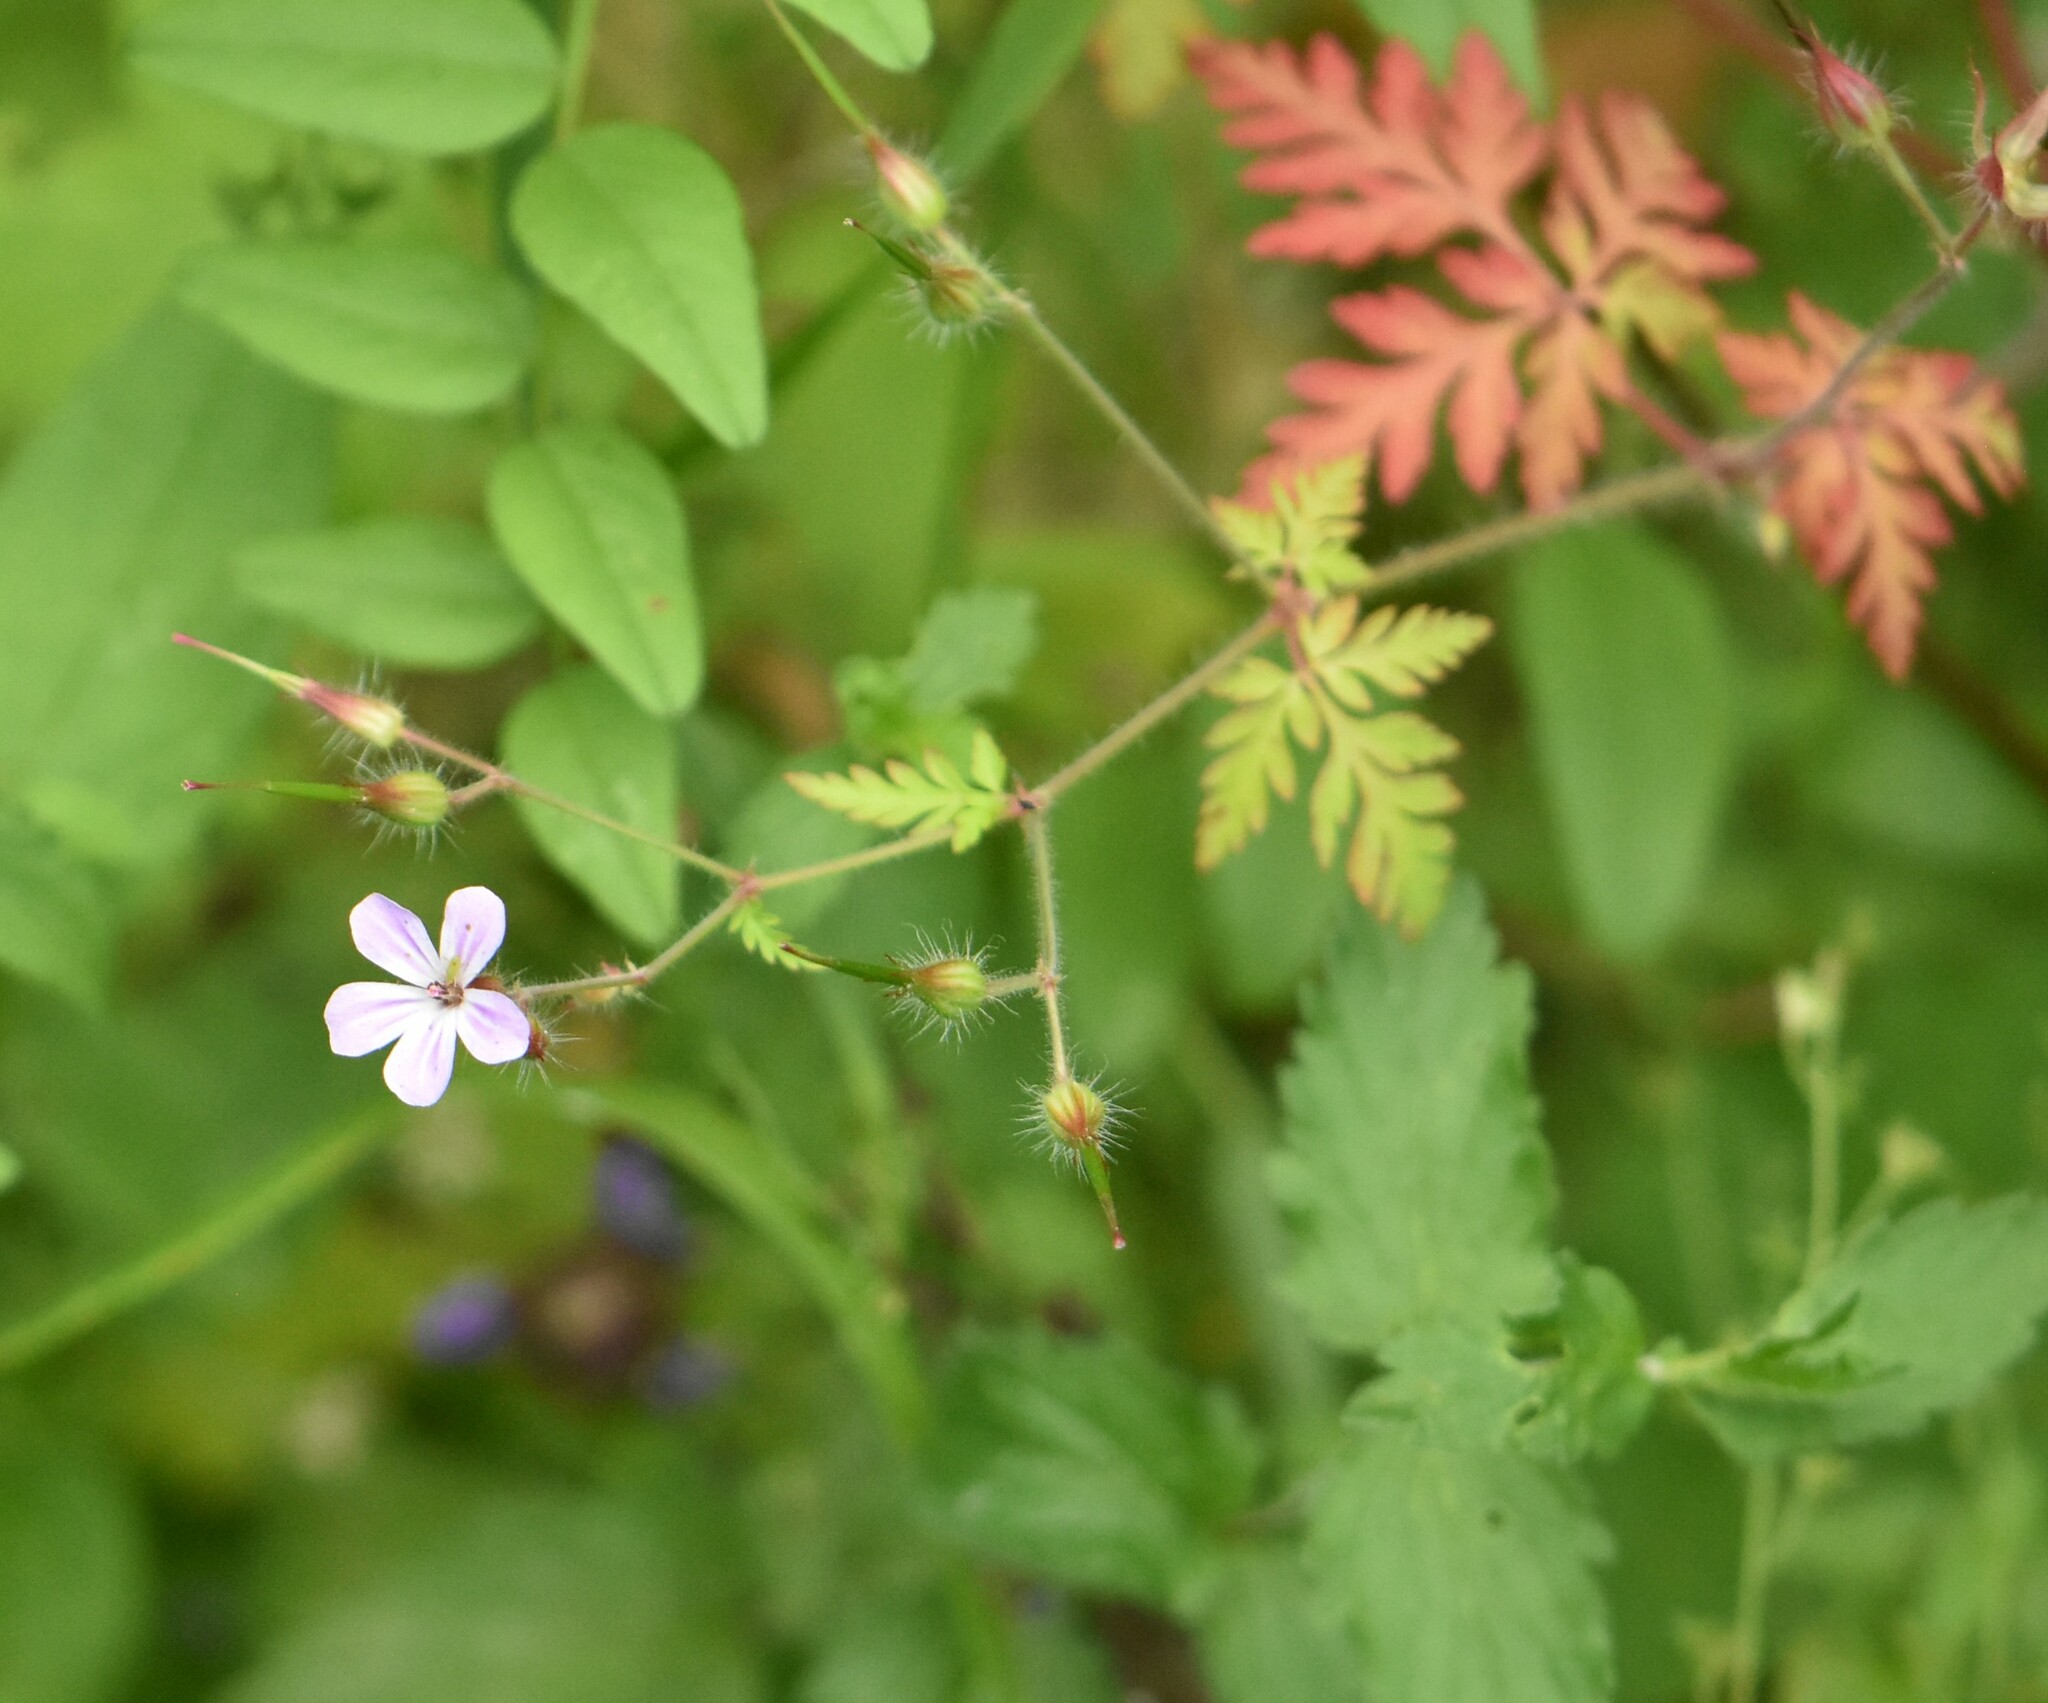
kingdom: Plantae
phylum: Tracheophyta
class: Magnoliopsida
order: Geraniales
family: Geraniaceae
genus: Geranium
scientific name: Geranium robertianum
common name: Herb-robert
